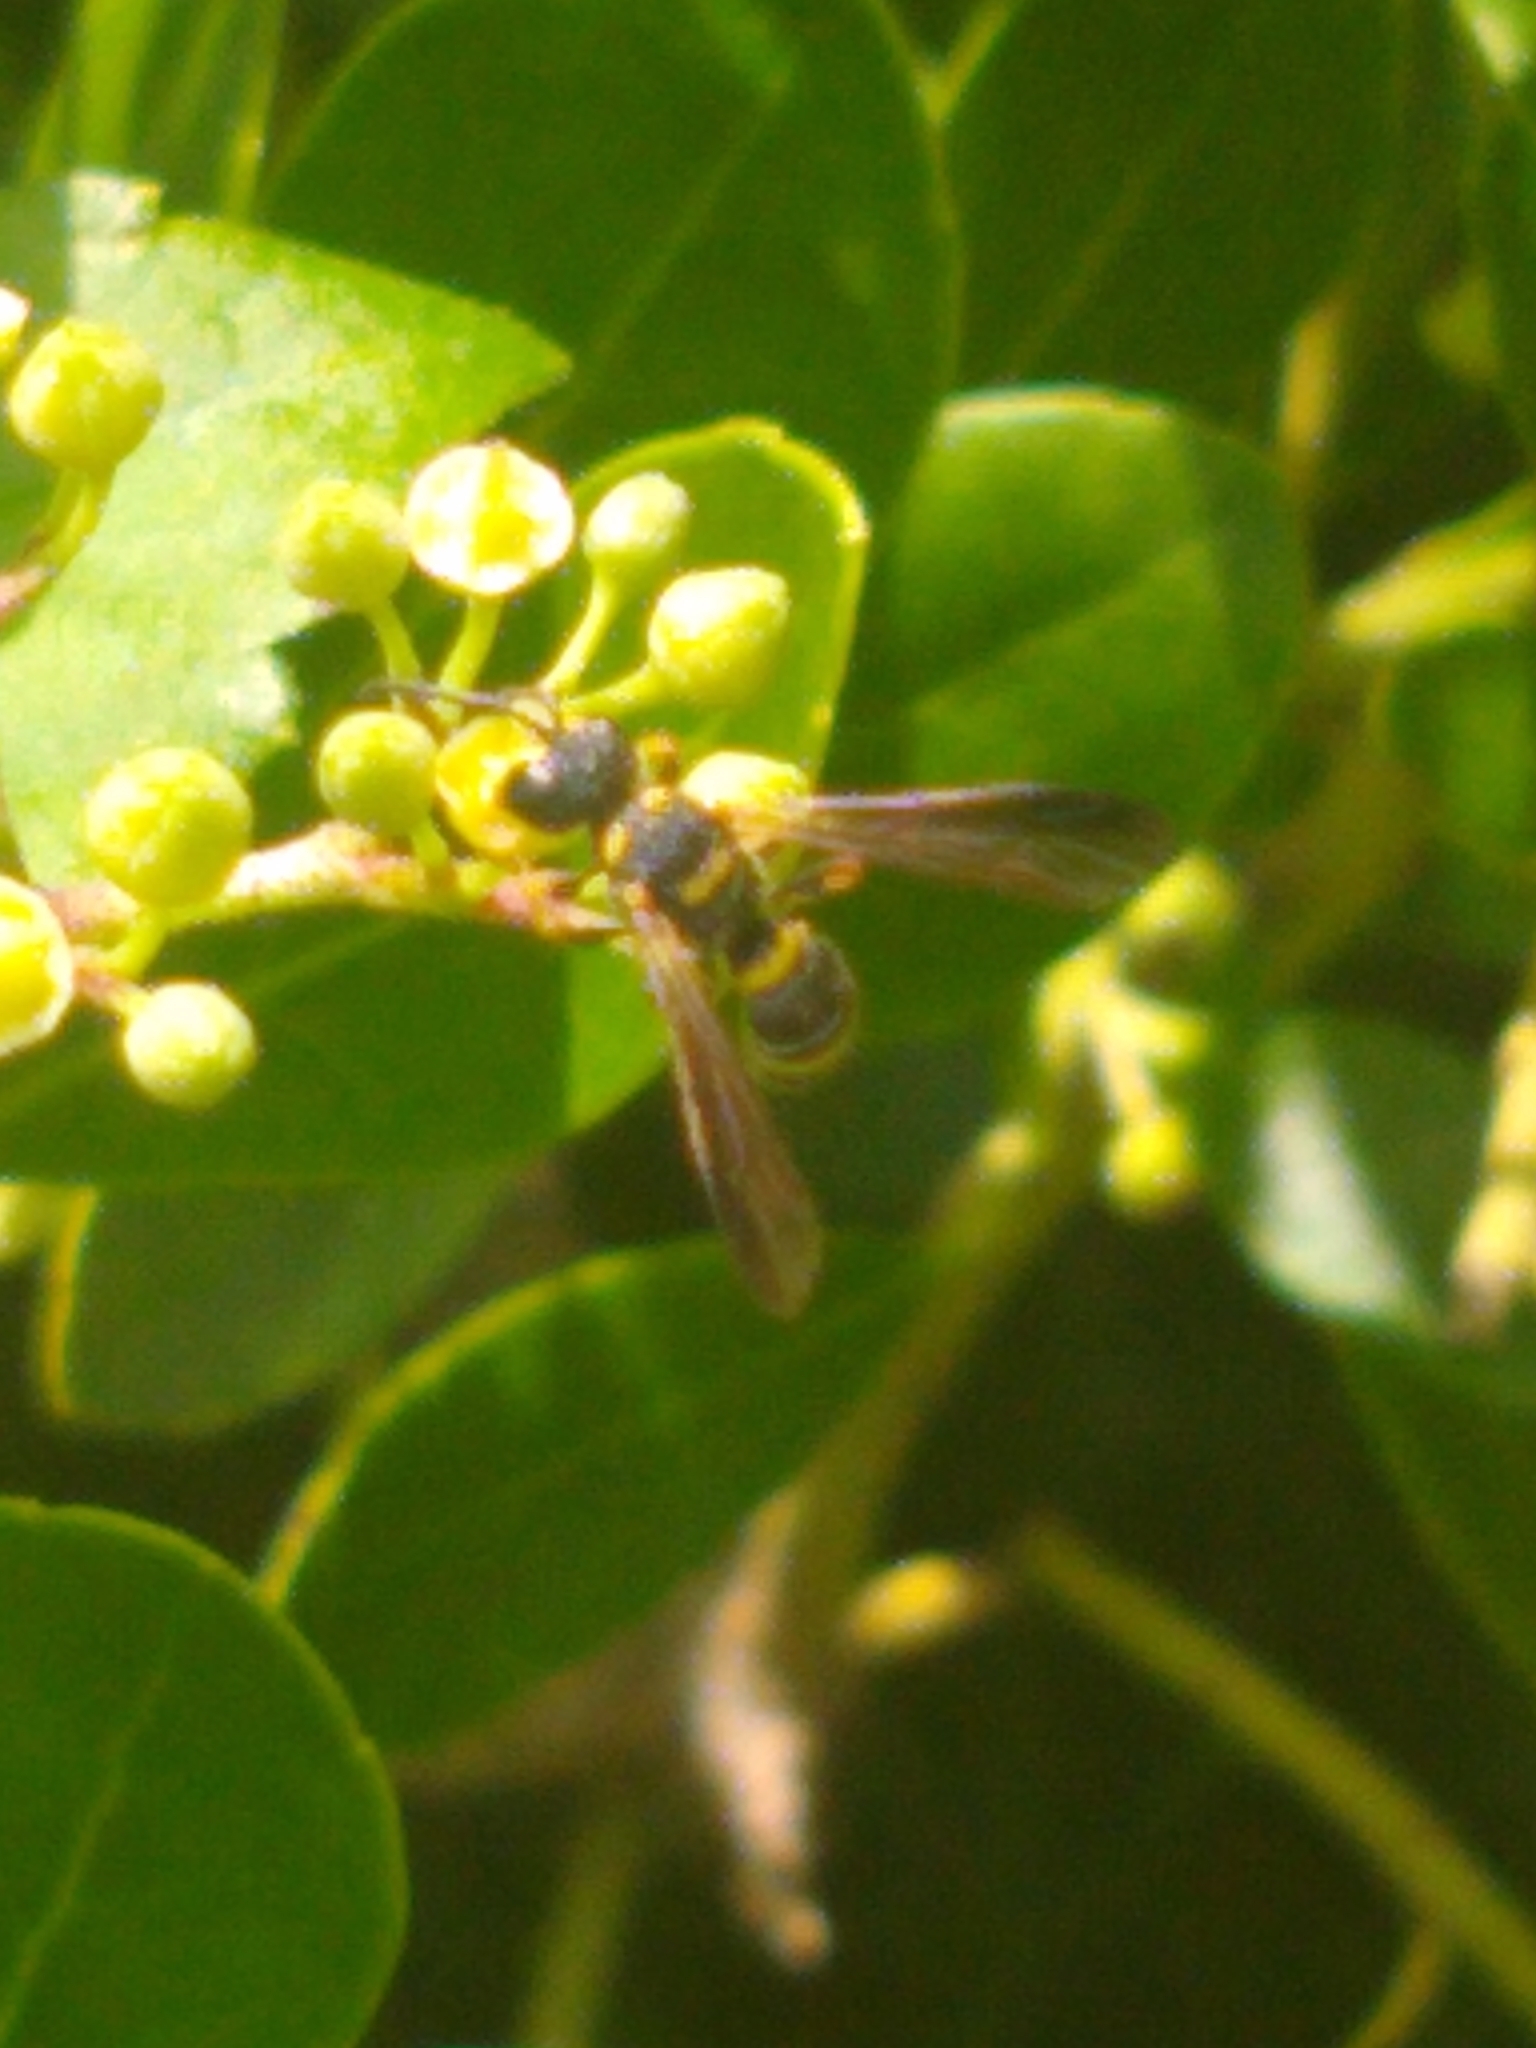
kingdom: Animalia
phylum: Arthropoda
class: Insecta
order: Hymenoptera
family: Crabronidae
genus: Cerceris
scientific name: Cerceris insolita
